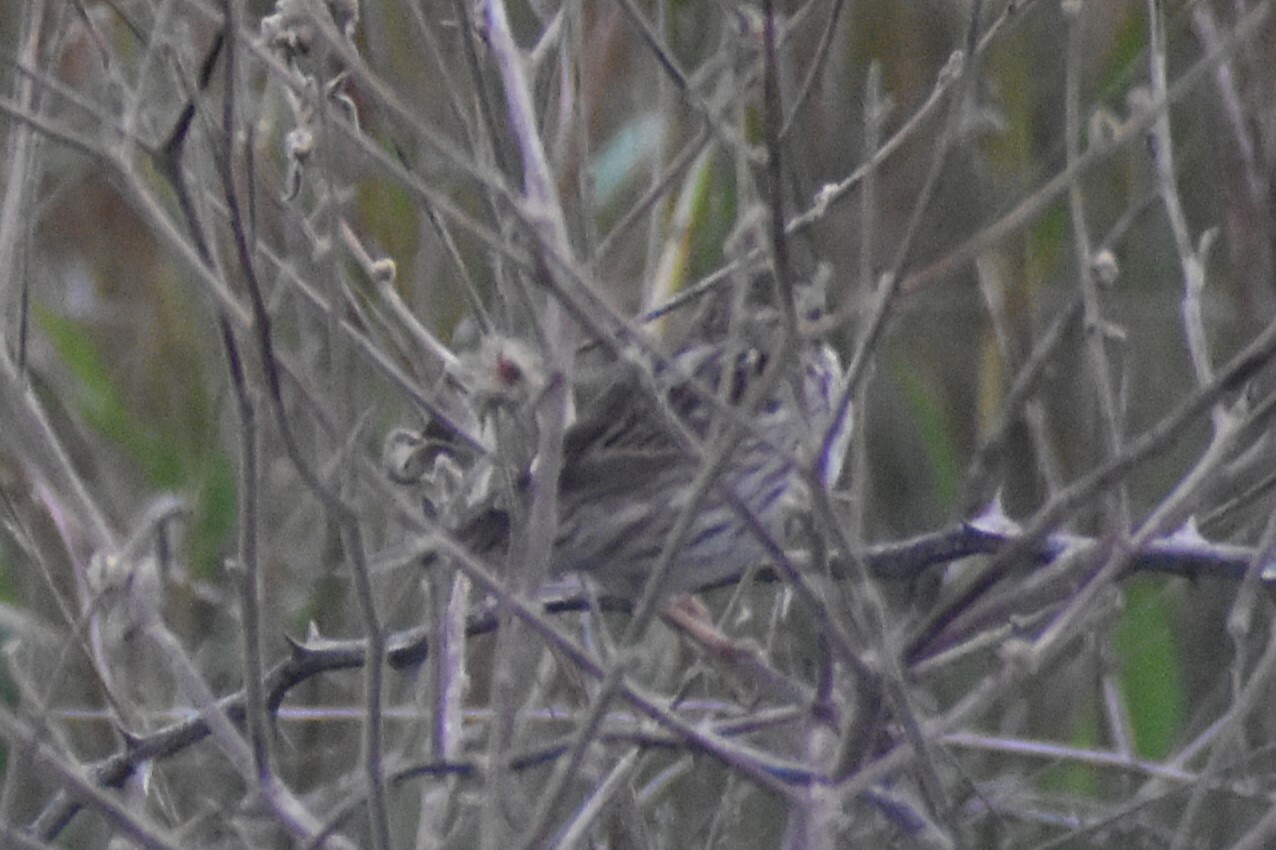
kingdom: Animalia
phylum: Chordata
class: Aves
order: Passeriformes
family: Passerellidae
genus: Passerculus
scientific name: Passerculus sandwichensis
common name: Savannah sparrow
